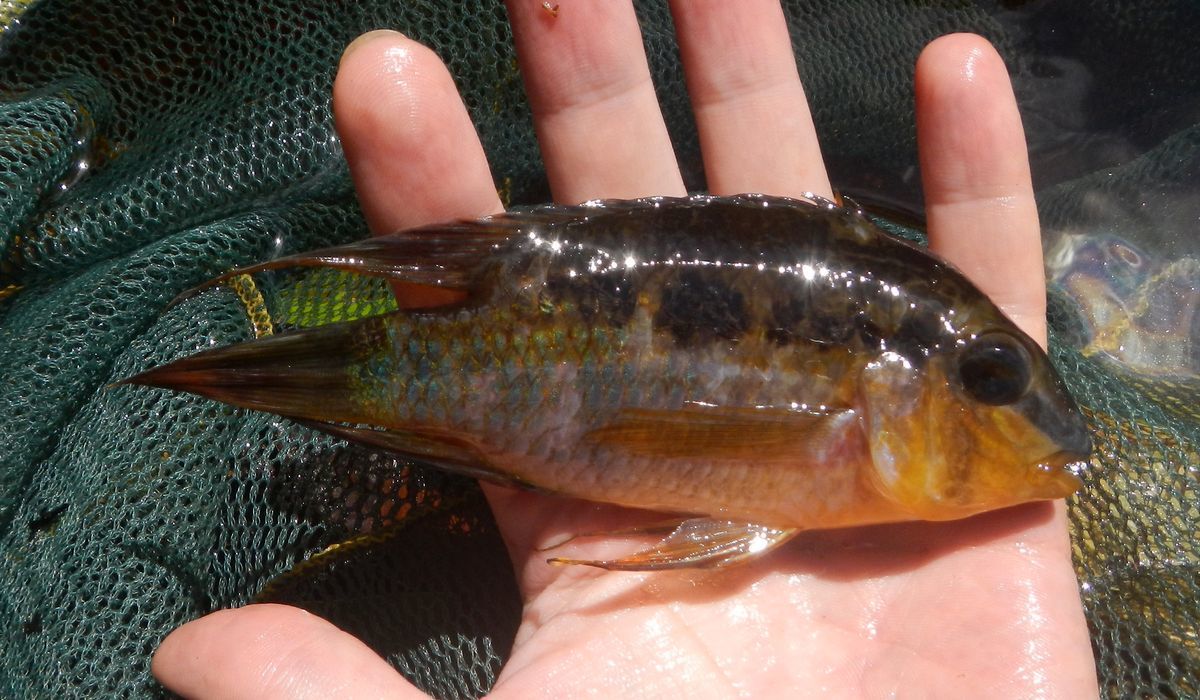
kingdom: Animalia
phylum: Chordata
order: Perciformes
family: Cichlidae
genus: Krobia
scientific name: Krobia itanyi
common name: Dolphin cichlid
